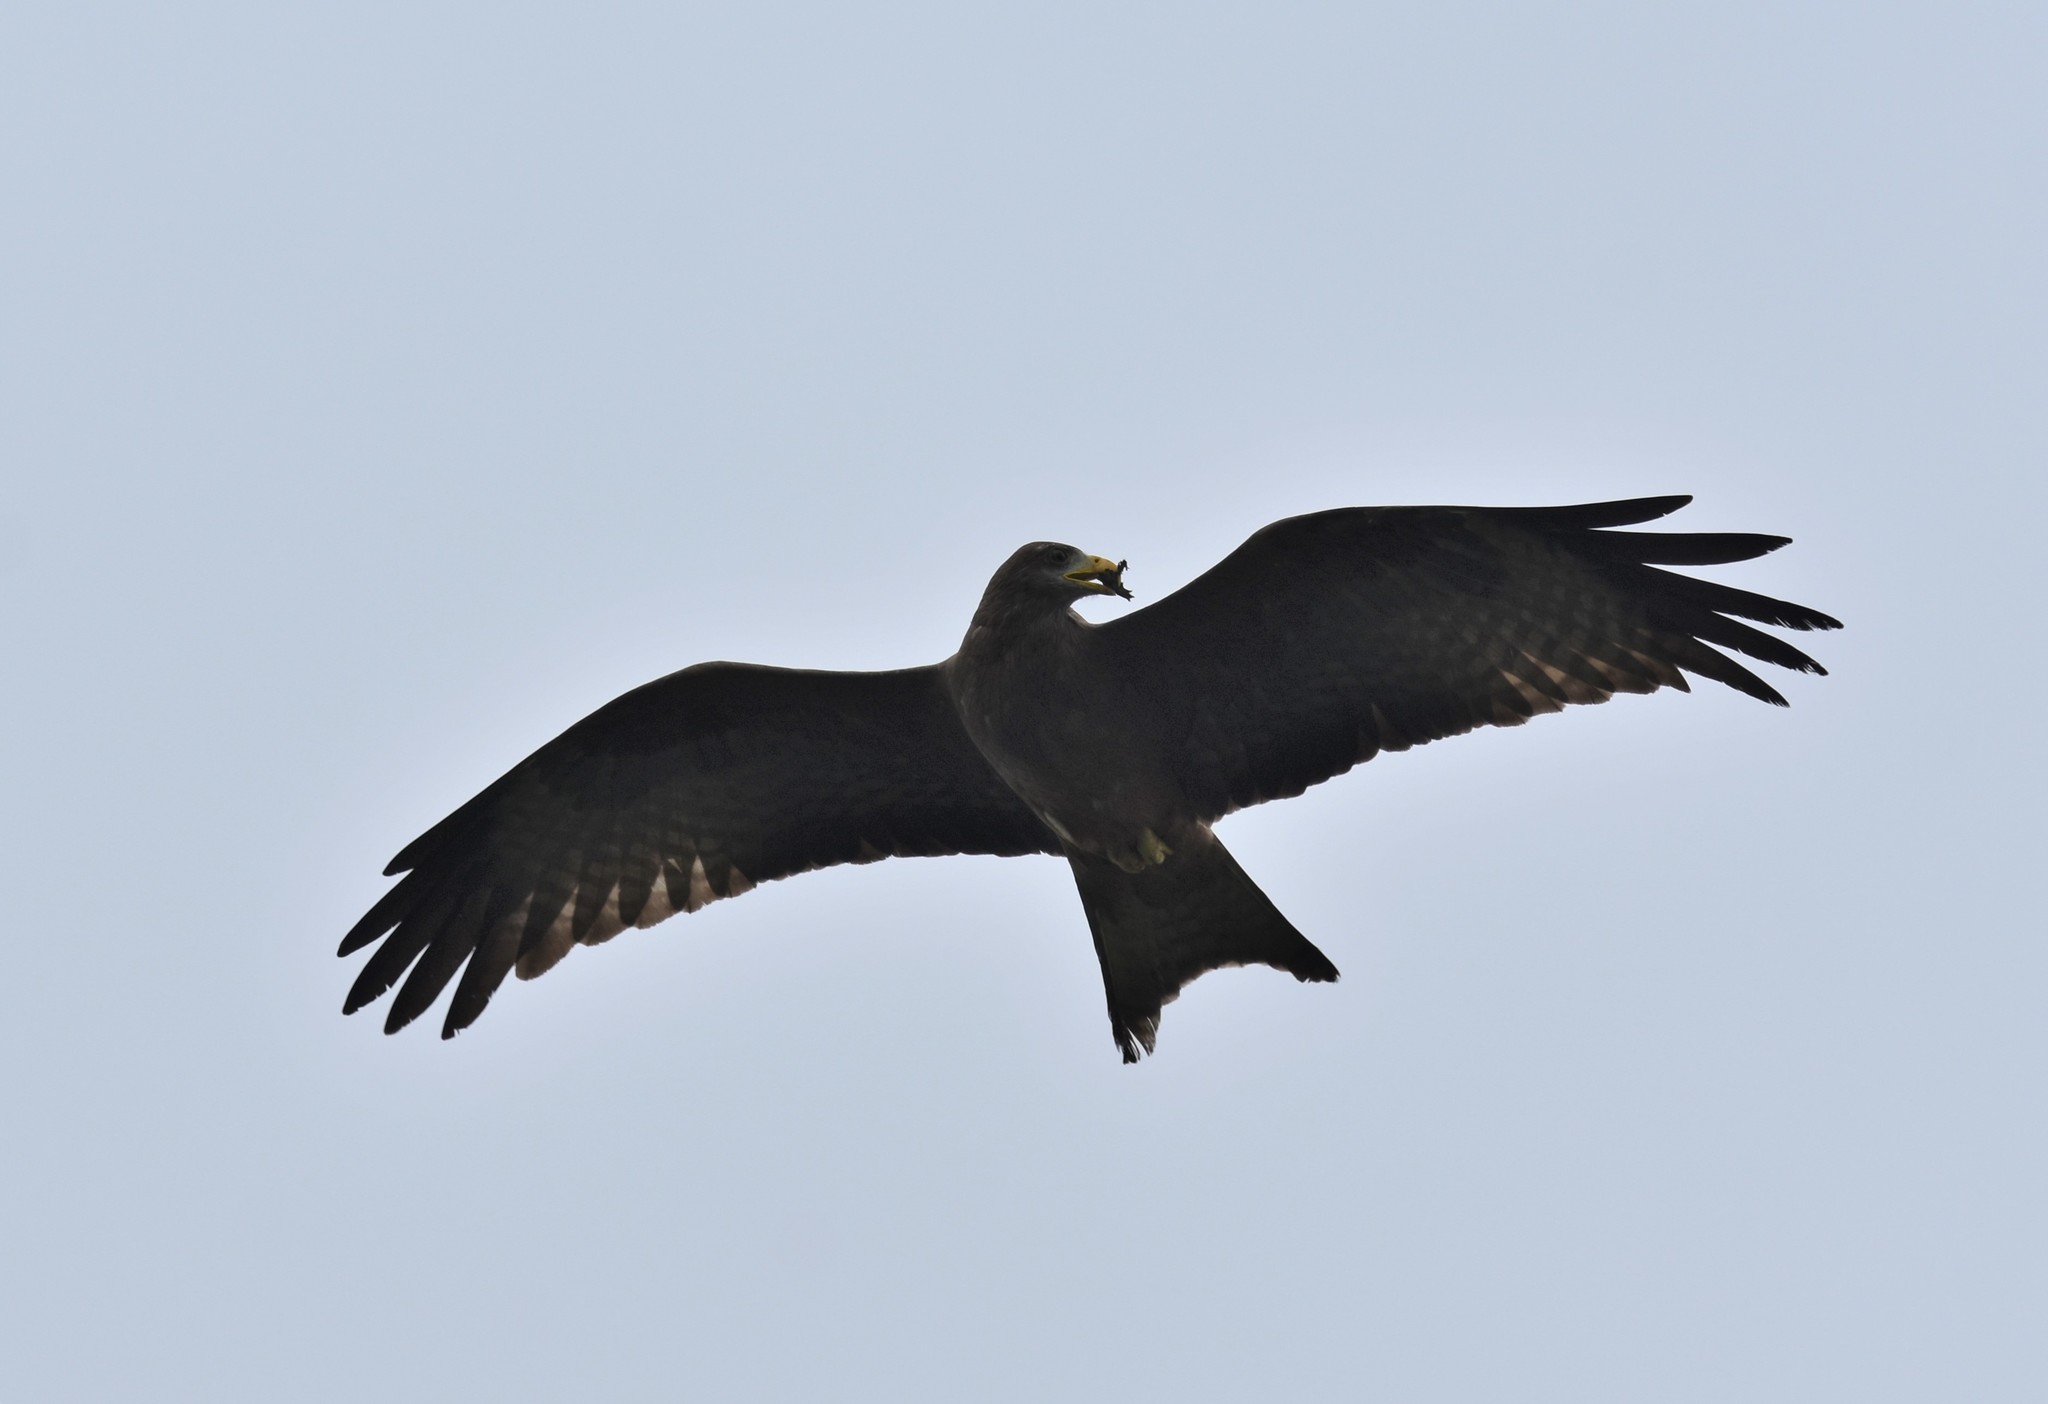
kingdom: Animalia
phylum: Chordata
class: Aves
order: Accipitriformes
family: Accipitridae
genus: Milvus
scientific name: Milvus migrans
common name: Black kite
